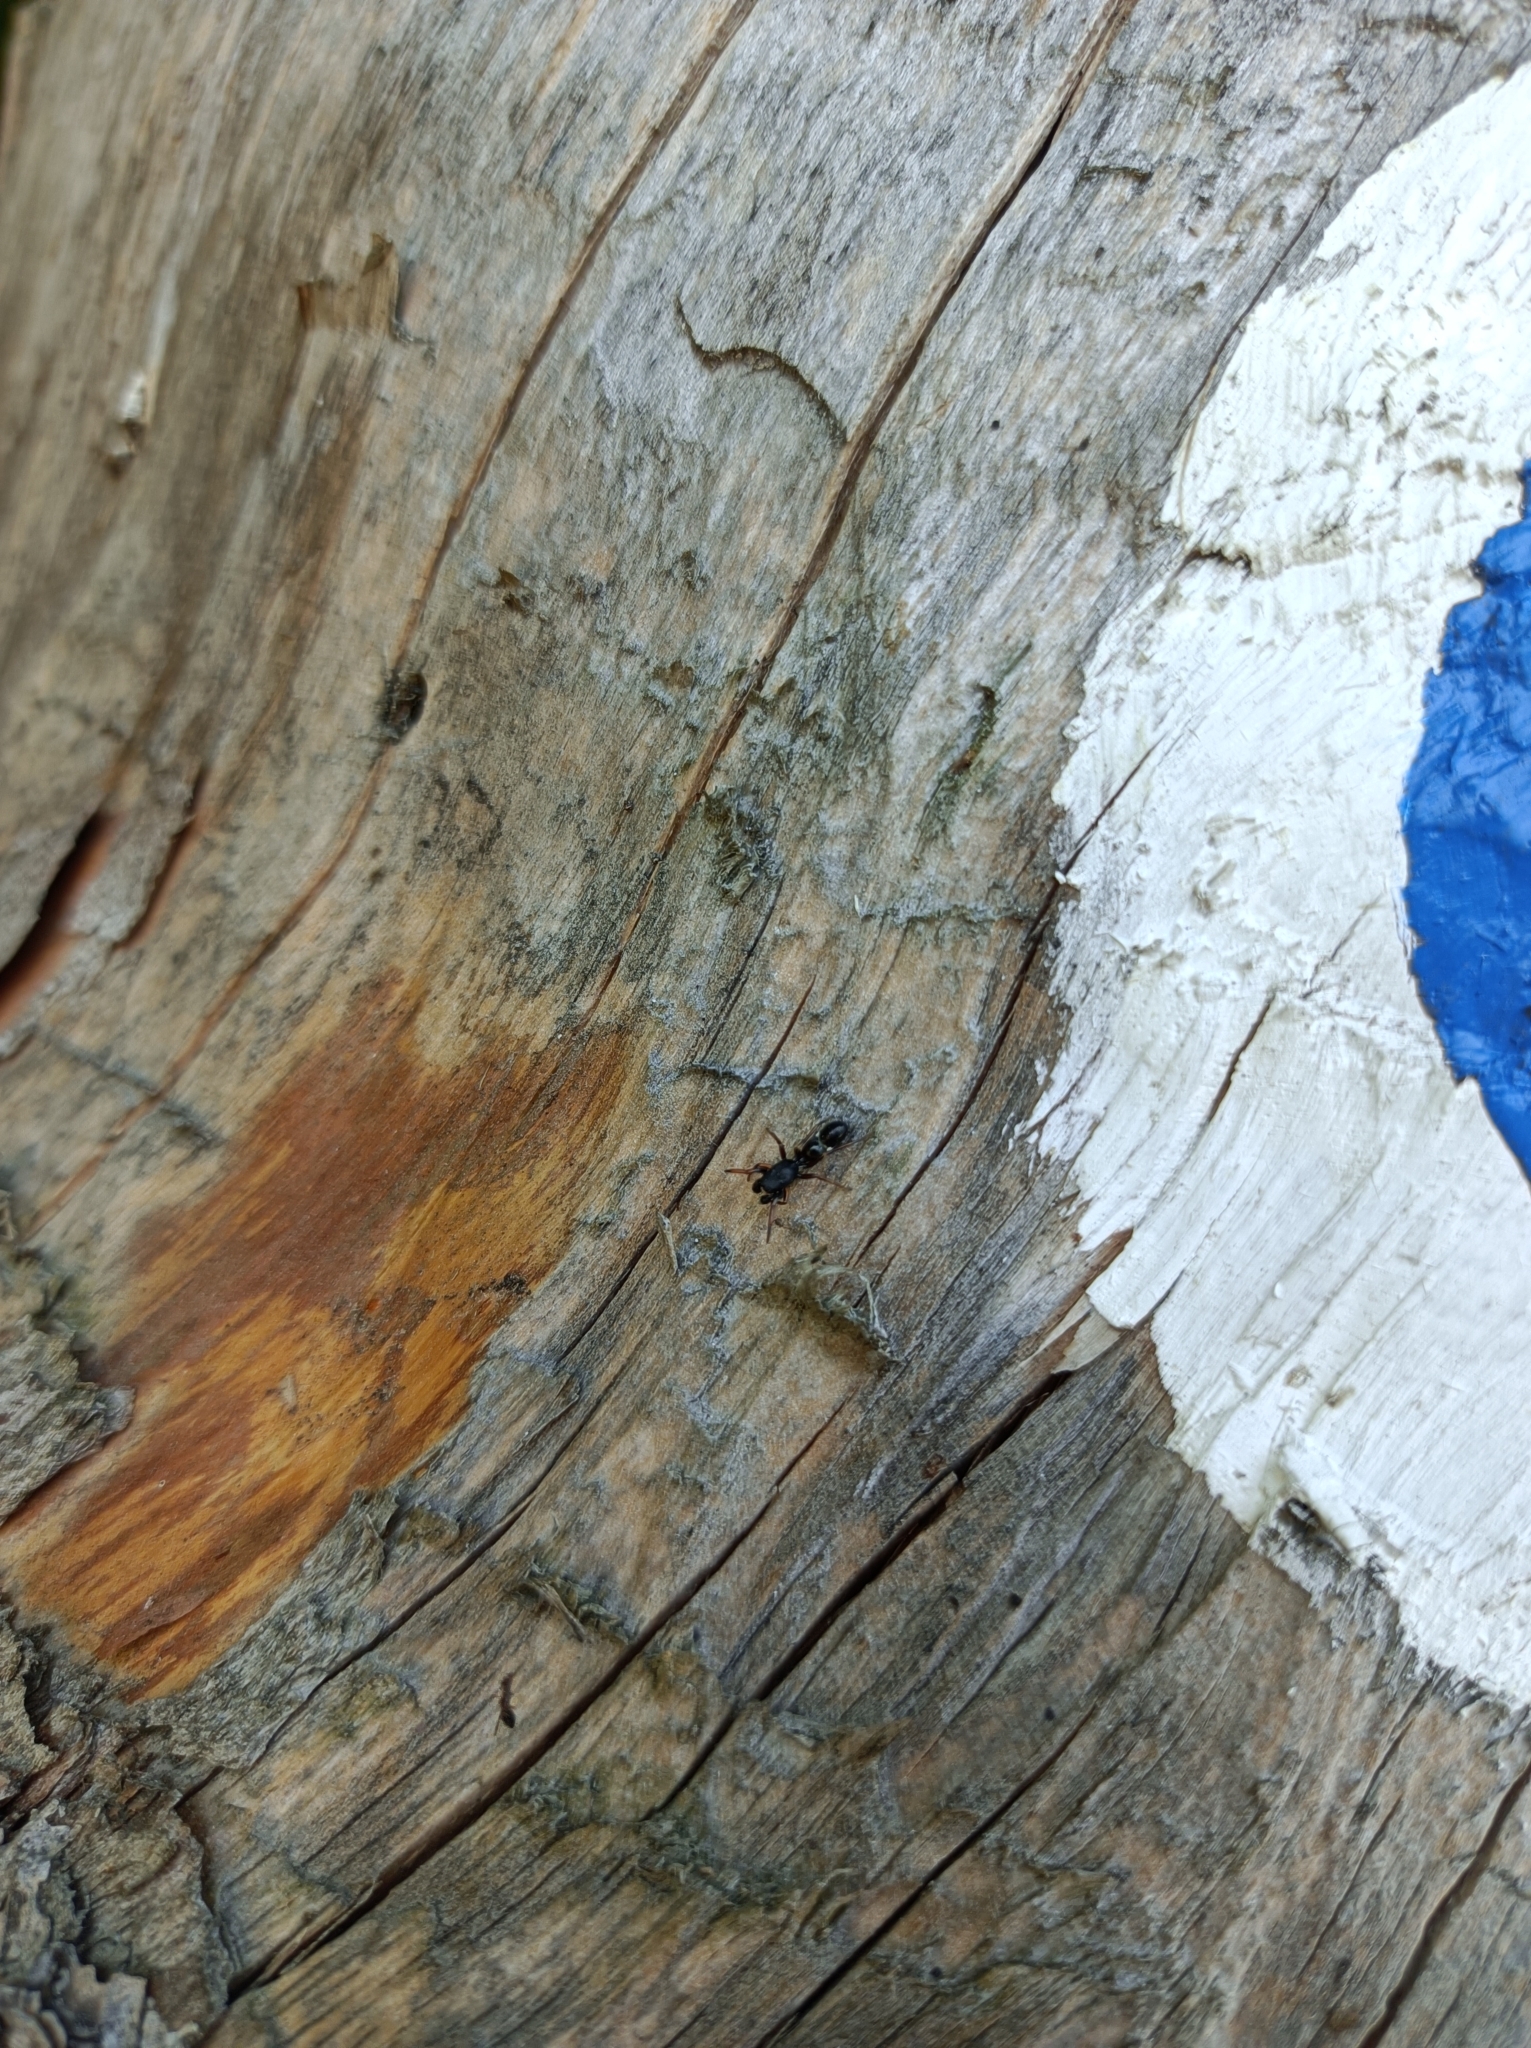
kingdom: Animalia
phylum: Arthropoda
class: Arachnida
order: Araneae
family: Salticidae
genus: Leptorchestes
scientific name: Leptorchestes berolinensis
